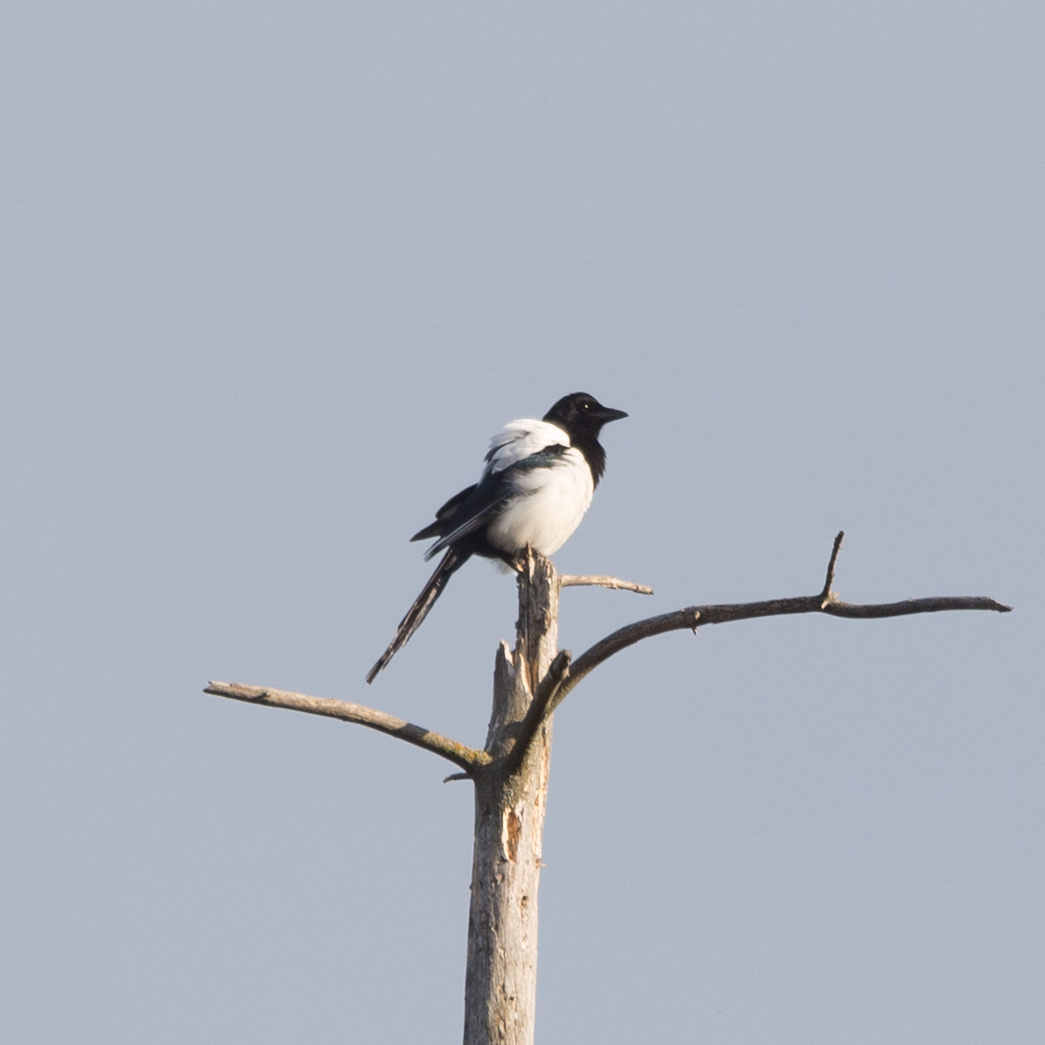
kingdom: Animalia
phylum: Chordata
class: Aves
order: Passeriformes
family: Corvidae
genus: Pica
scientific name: Pica pica
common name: Eurasian magpie
